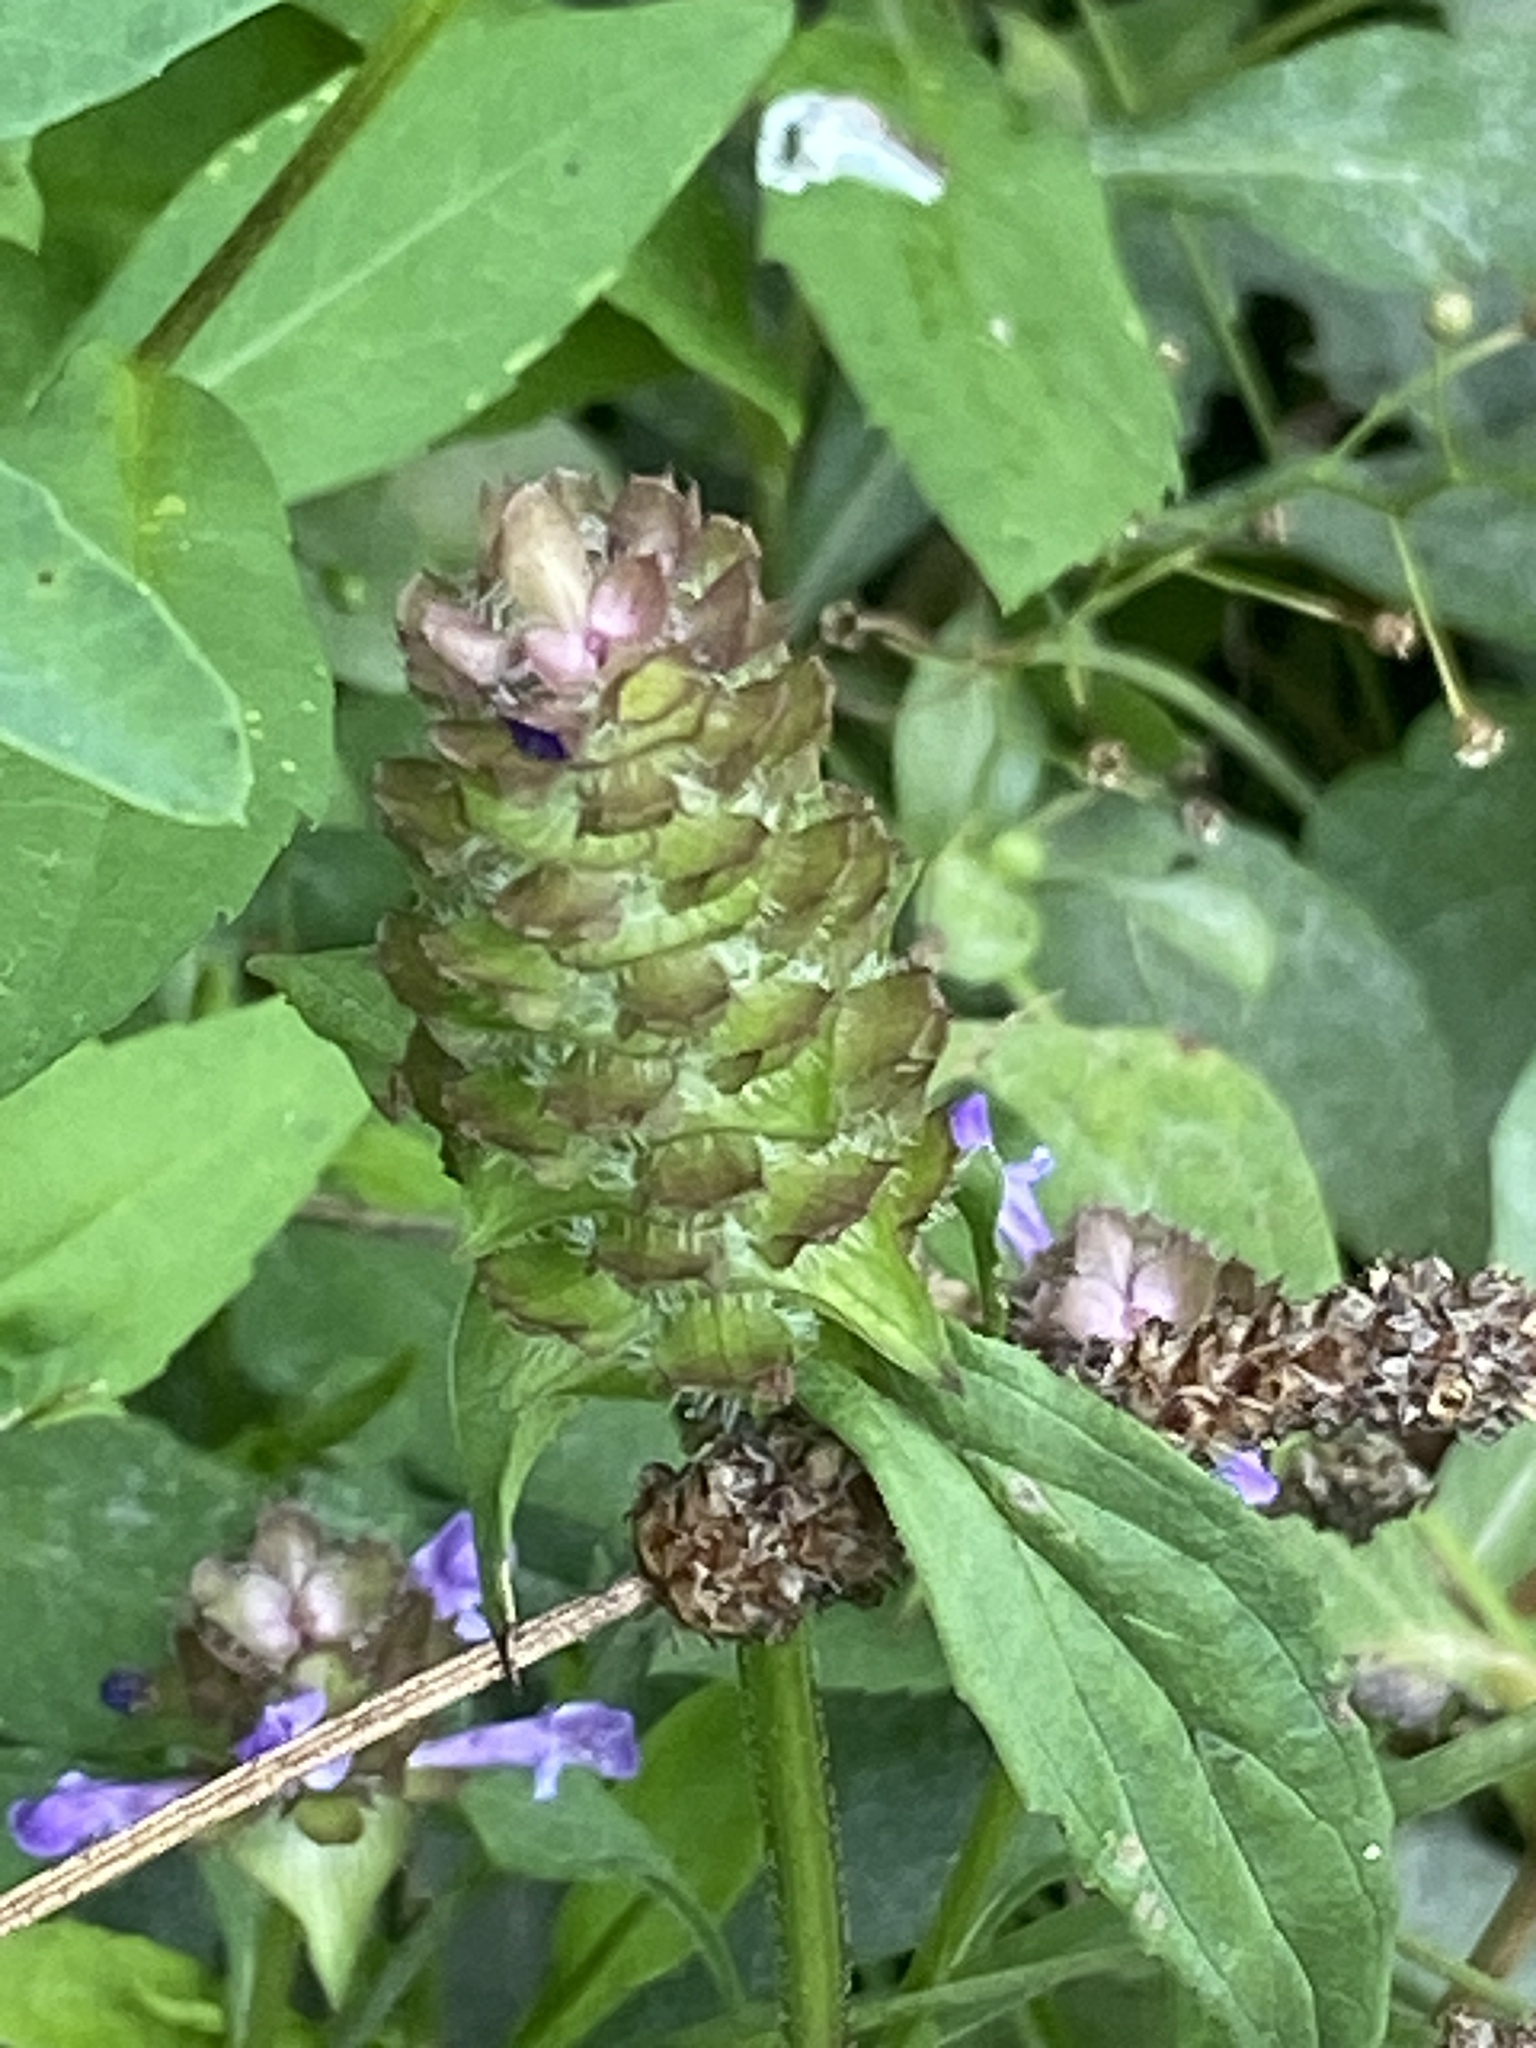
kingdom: Plantae
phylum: Tracheophyta
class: Magnoliopsida
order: Lamiales
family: Lamiaceae
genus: Prunella
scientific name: Prunella vulgaris
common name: Heal-all
